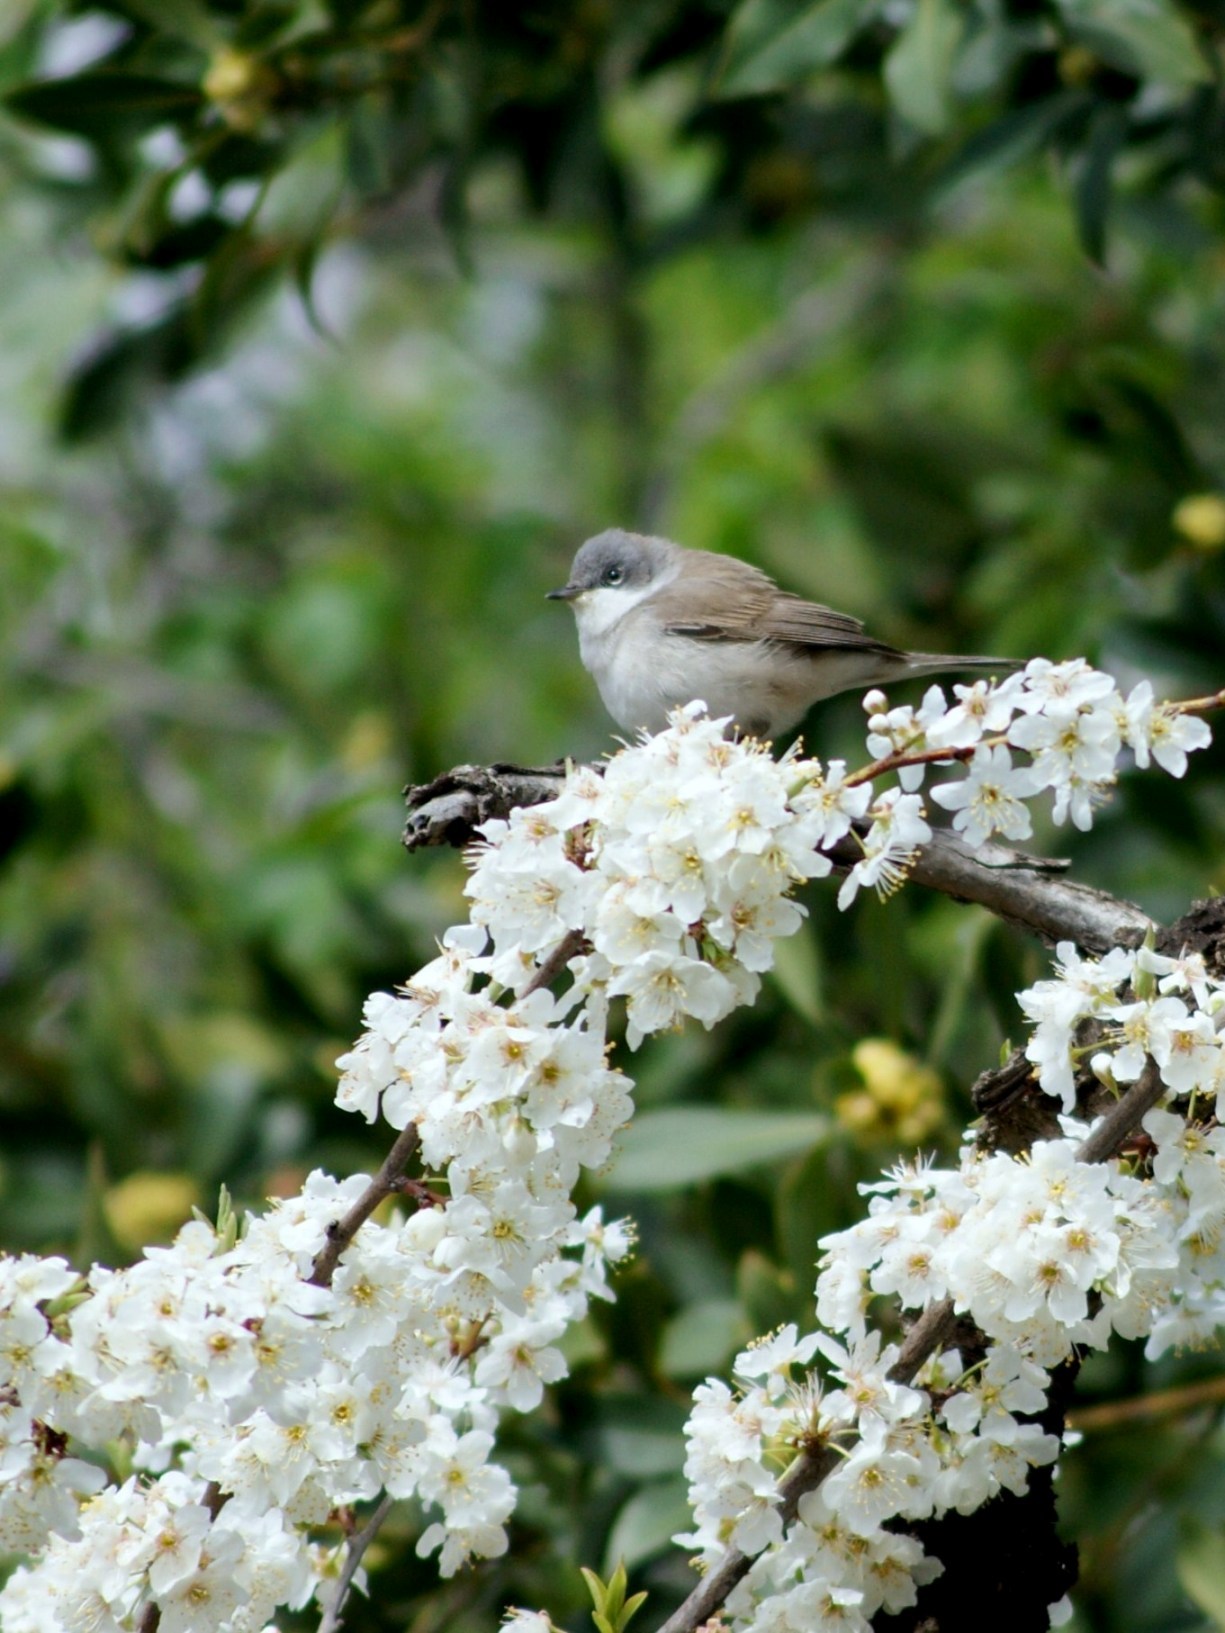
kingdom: Animalia
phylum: Chordata
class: Aves
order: Passeriformes
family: Sylviidae
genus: Sylvia
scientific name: Sylvia curruca
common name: Lesser whitethroat
